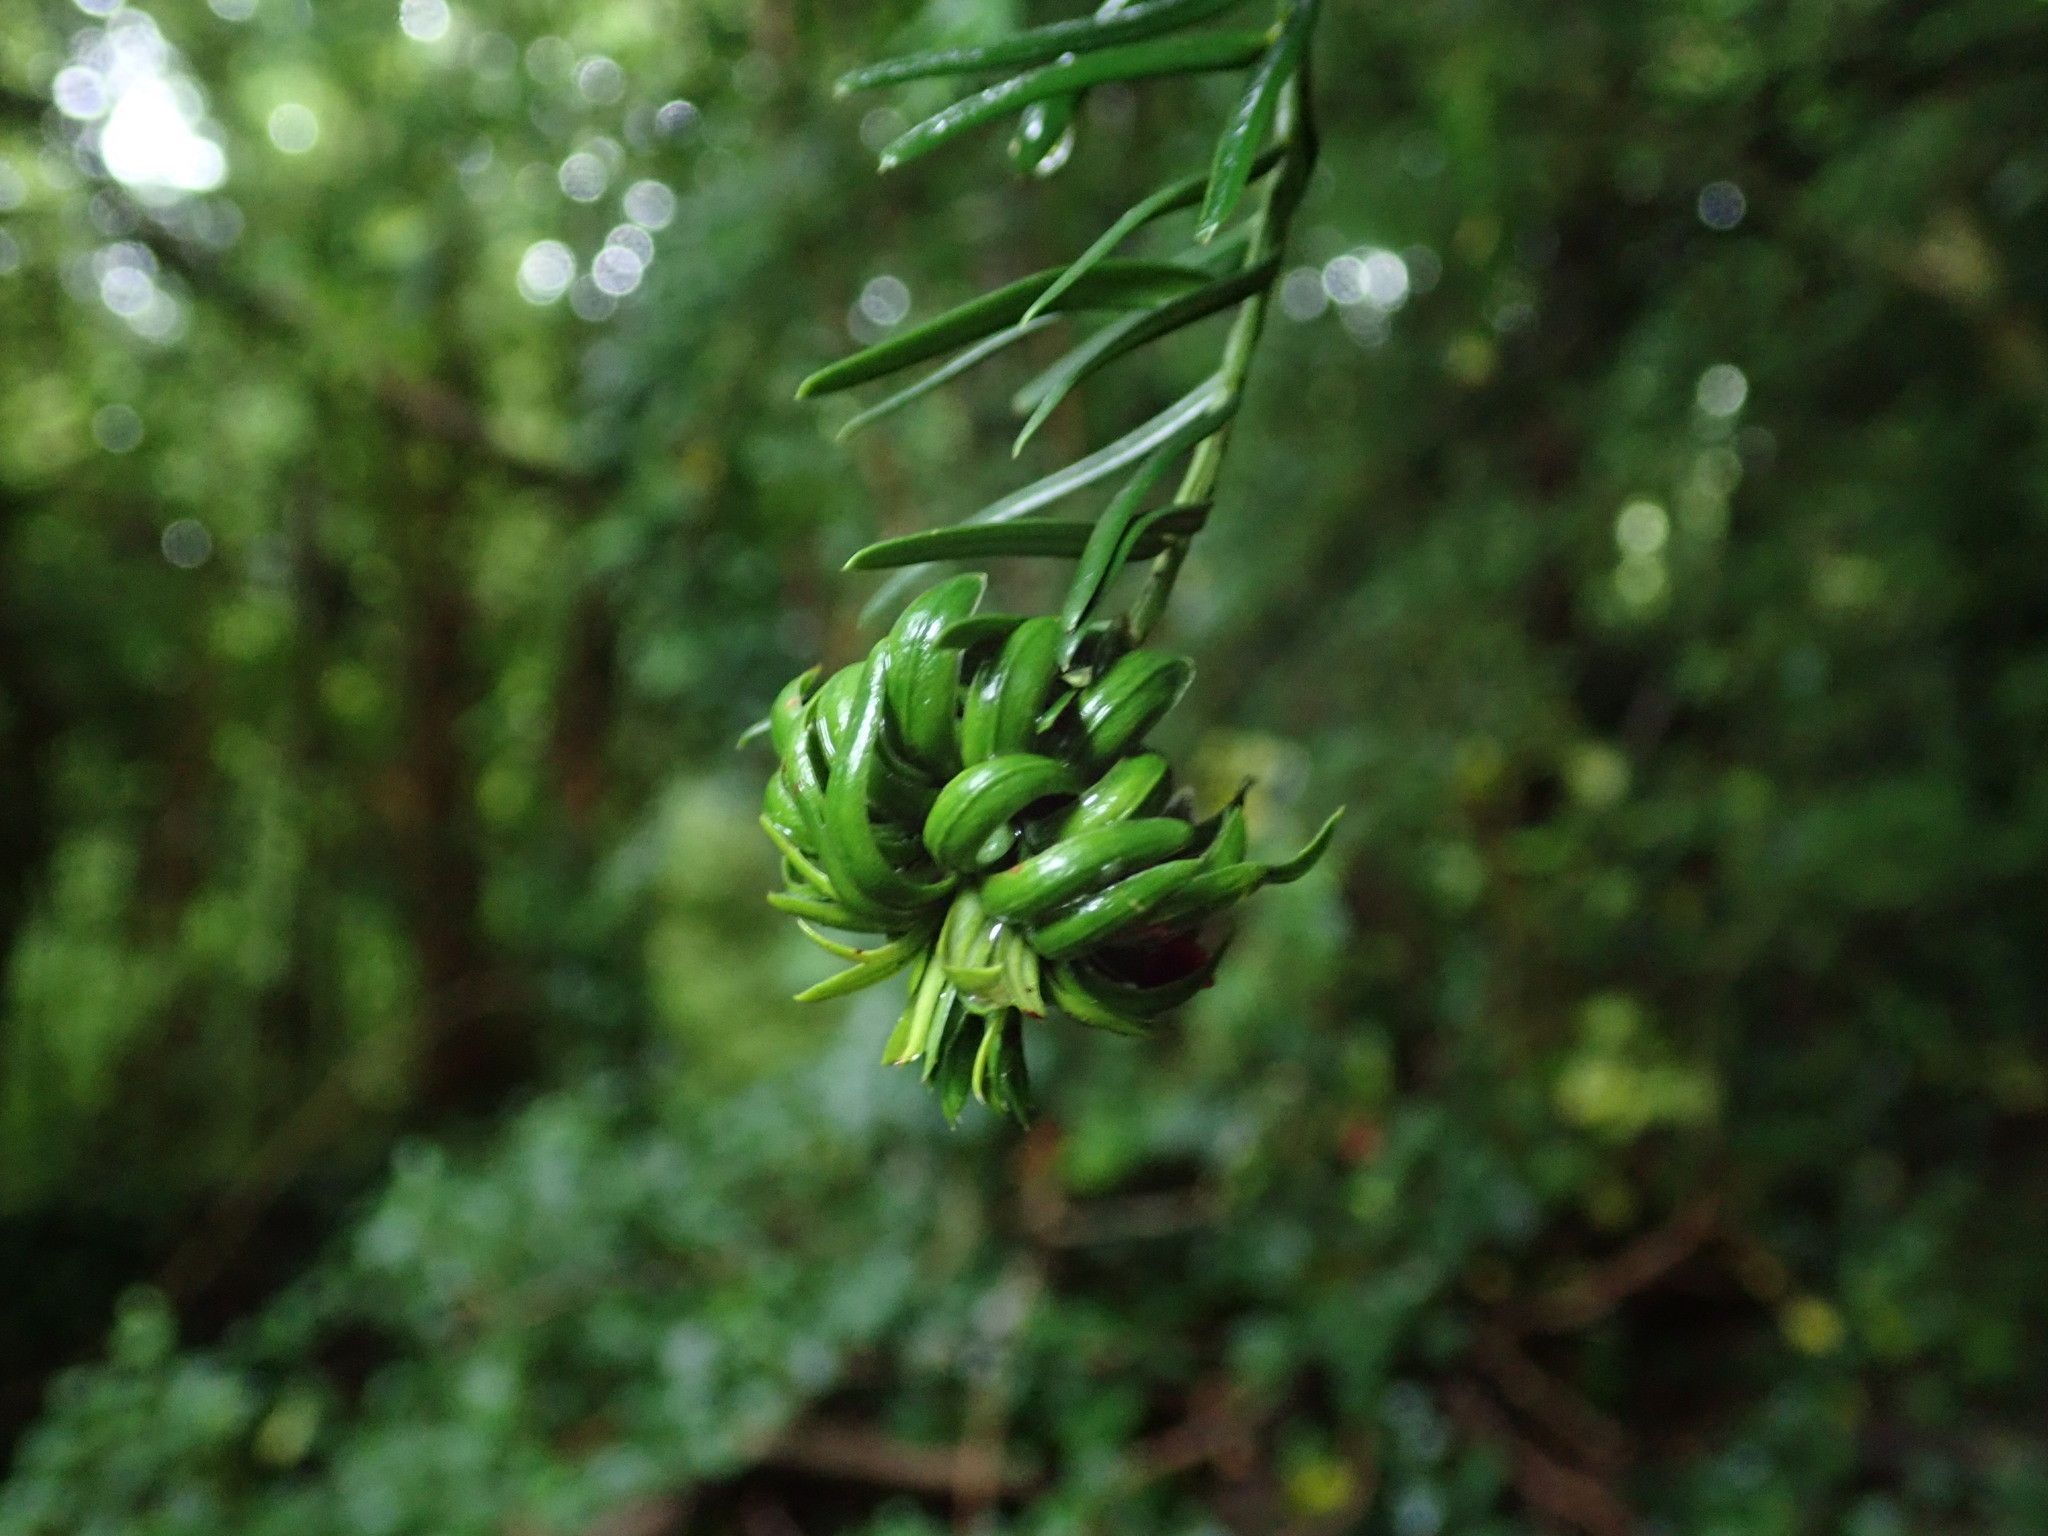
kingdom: Animalia
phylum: Arthropoda
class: Insecta
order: Diptera
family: Cecidomyiidae
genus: Taxomyia
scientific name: Taxomyia taxi
